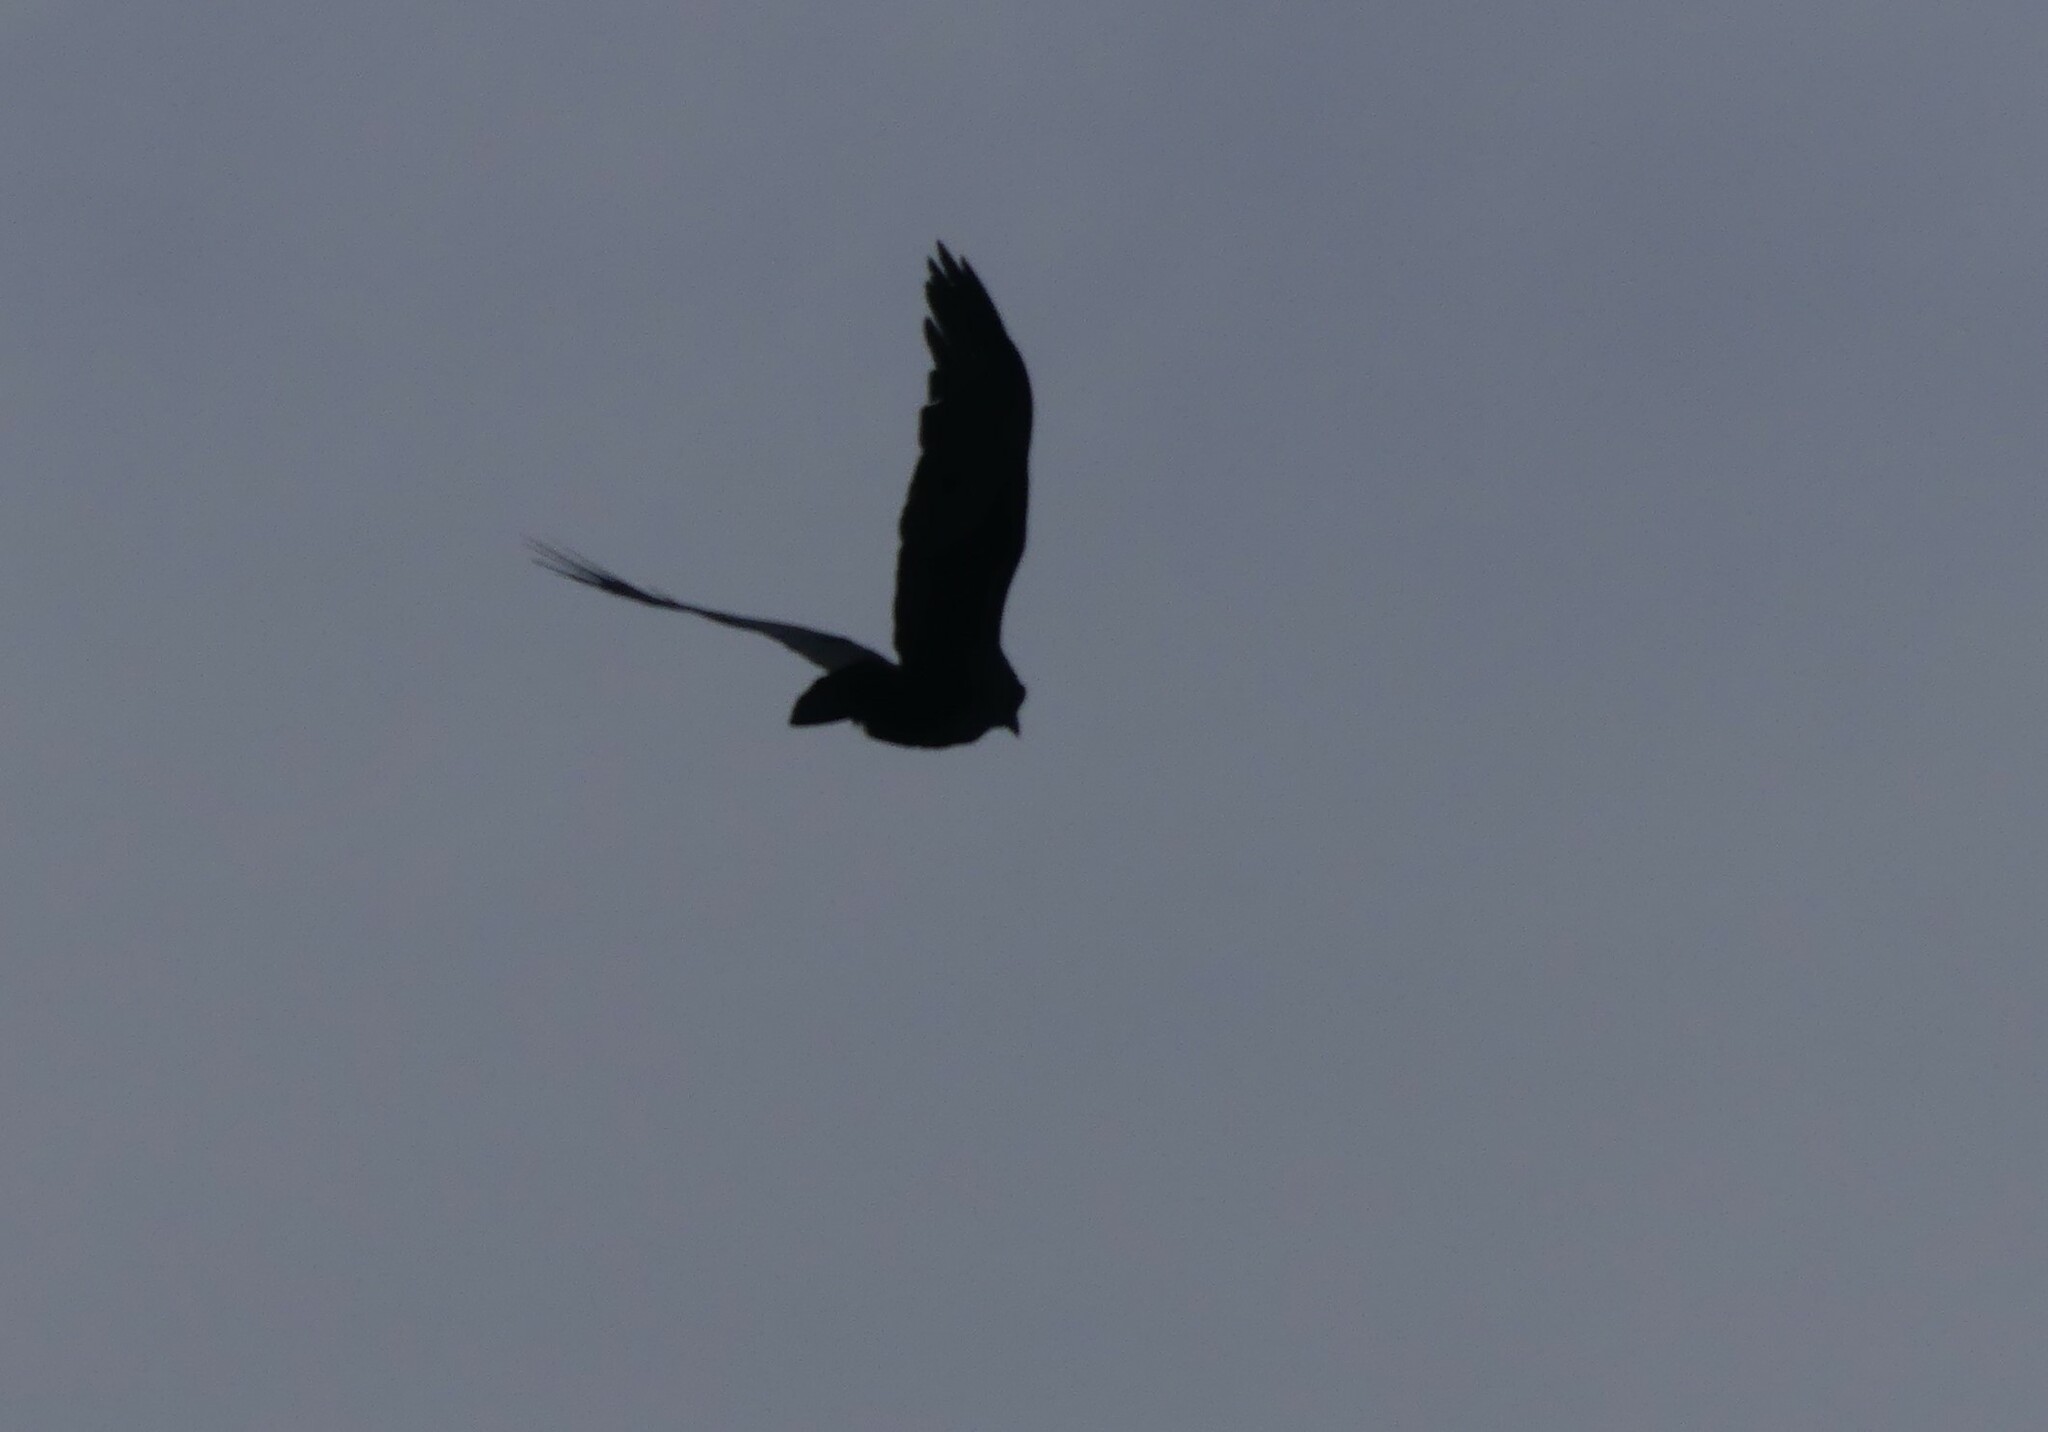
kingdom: Animalia
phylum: Chordata
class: Aves
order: Passeriformes
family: Corvidae
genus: Corvus
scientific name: Corvus brachyrhynchos
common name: American crow
